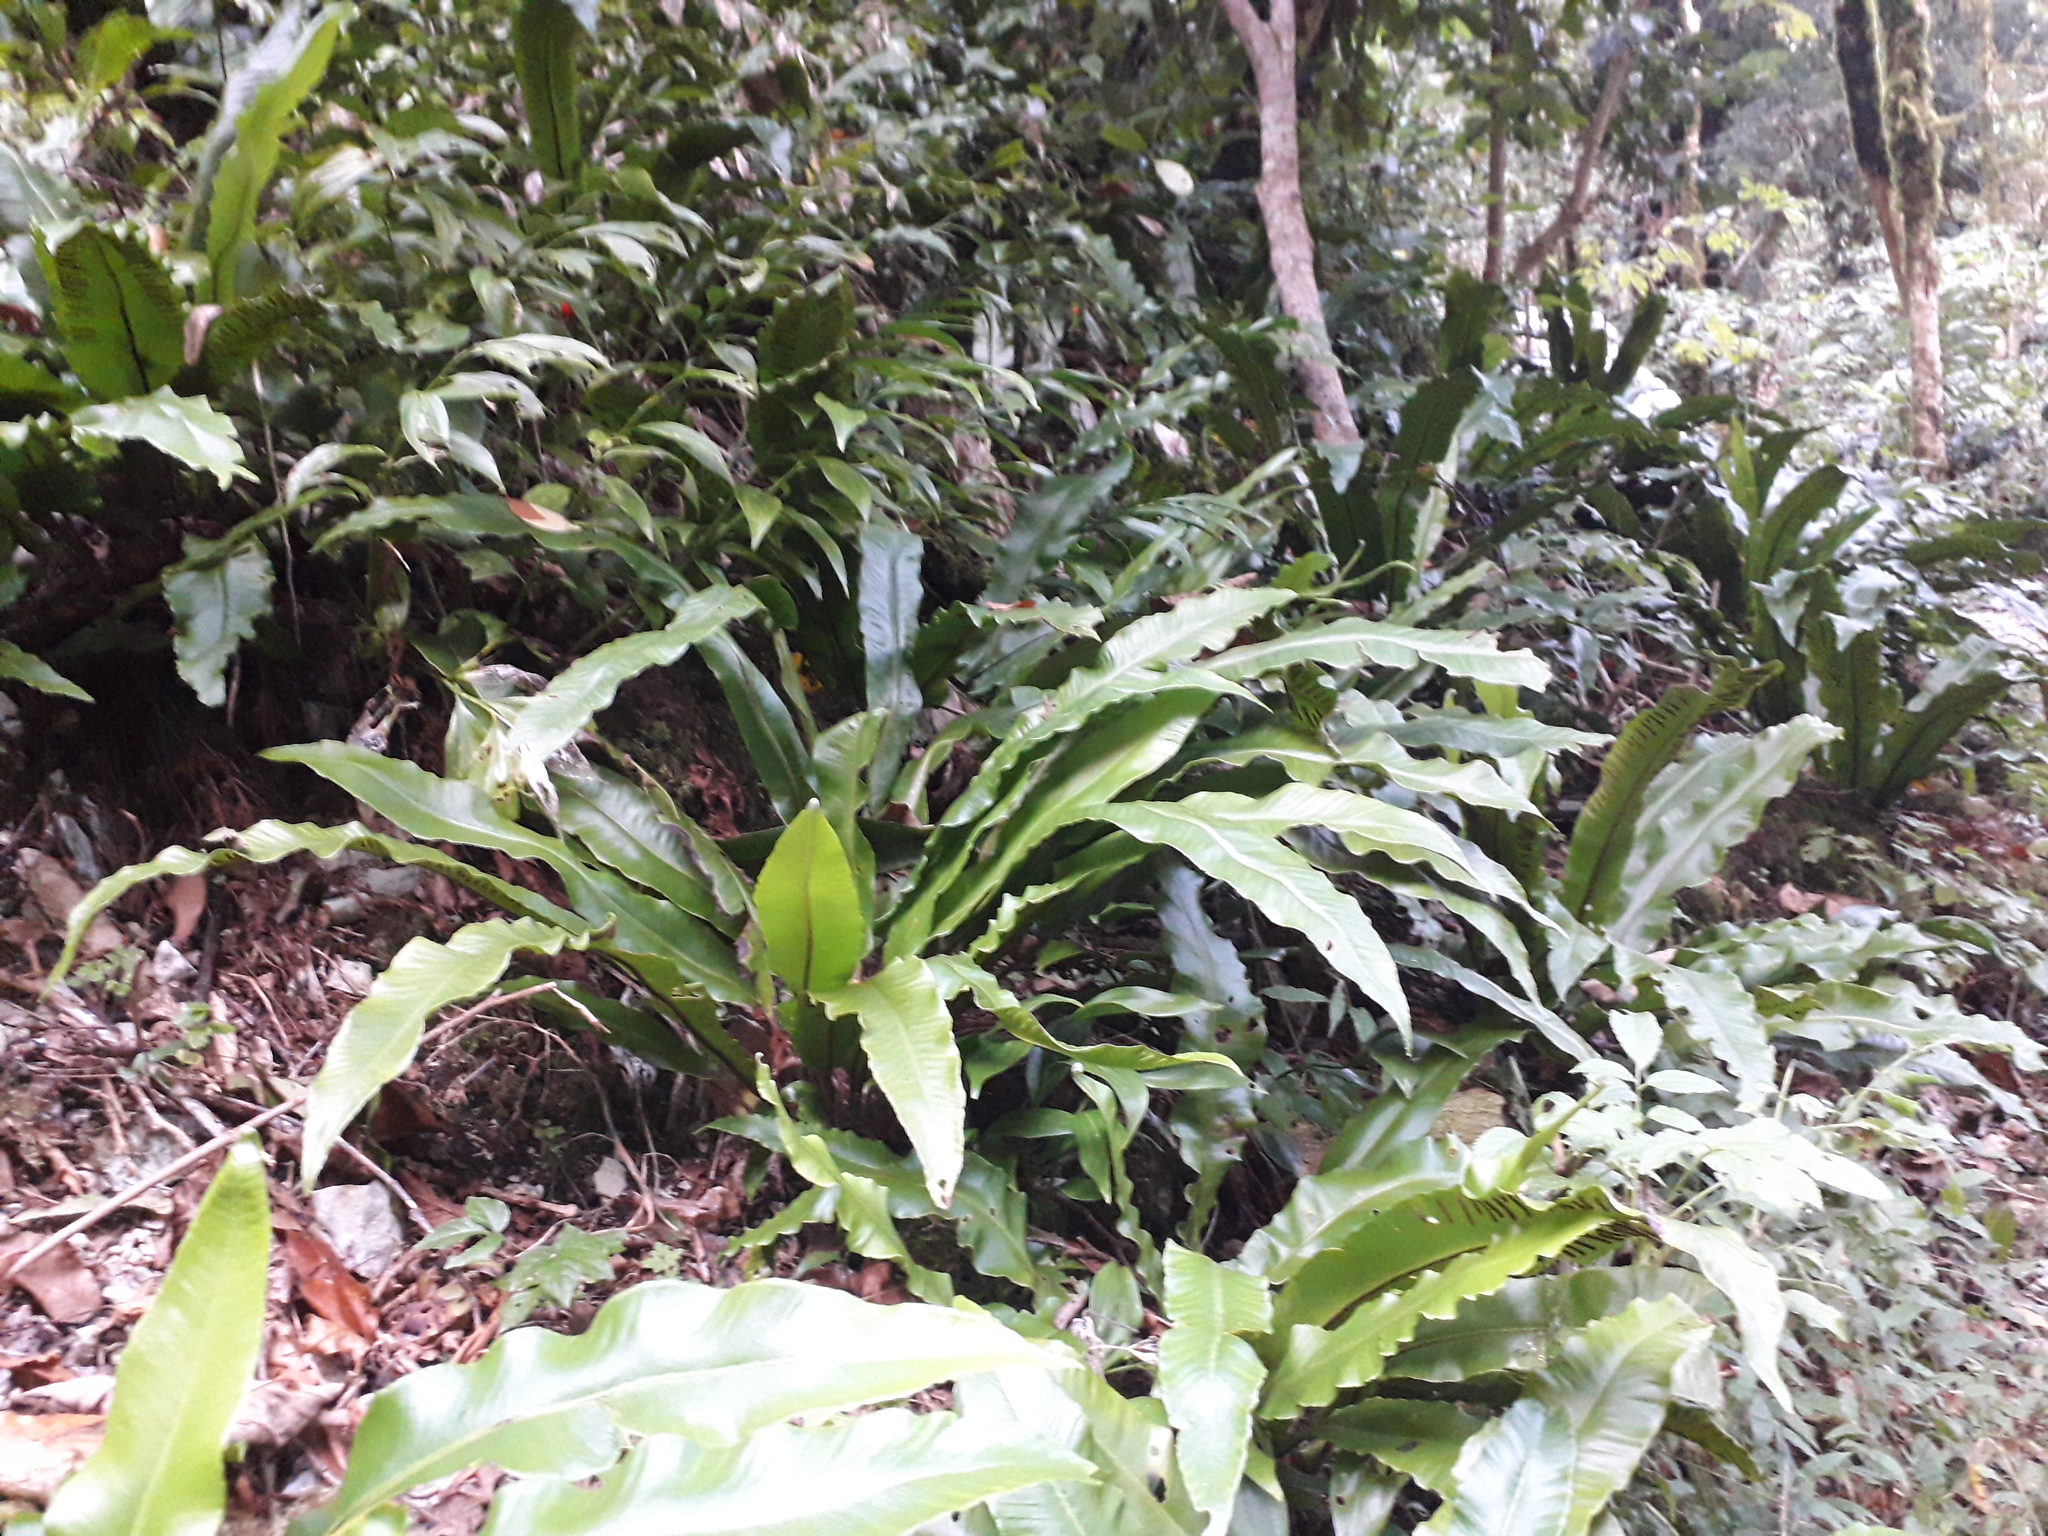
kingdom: Plantae
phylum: Tracheophyta
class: Polypodiopsida
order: Polypodiales
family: Aspleniaceae
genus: Asplenium
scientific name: Asplenium scolopendrium
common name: Hart's-tongue fern
